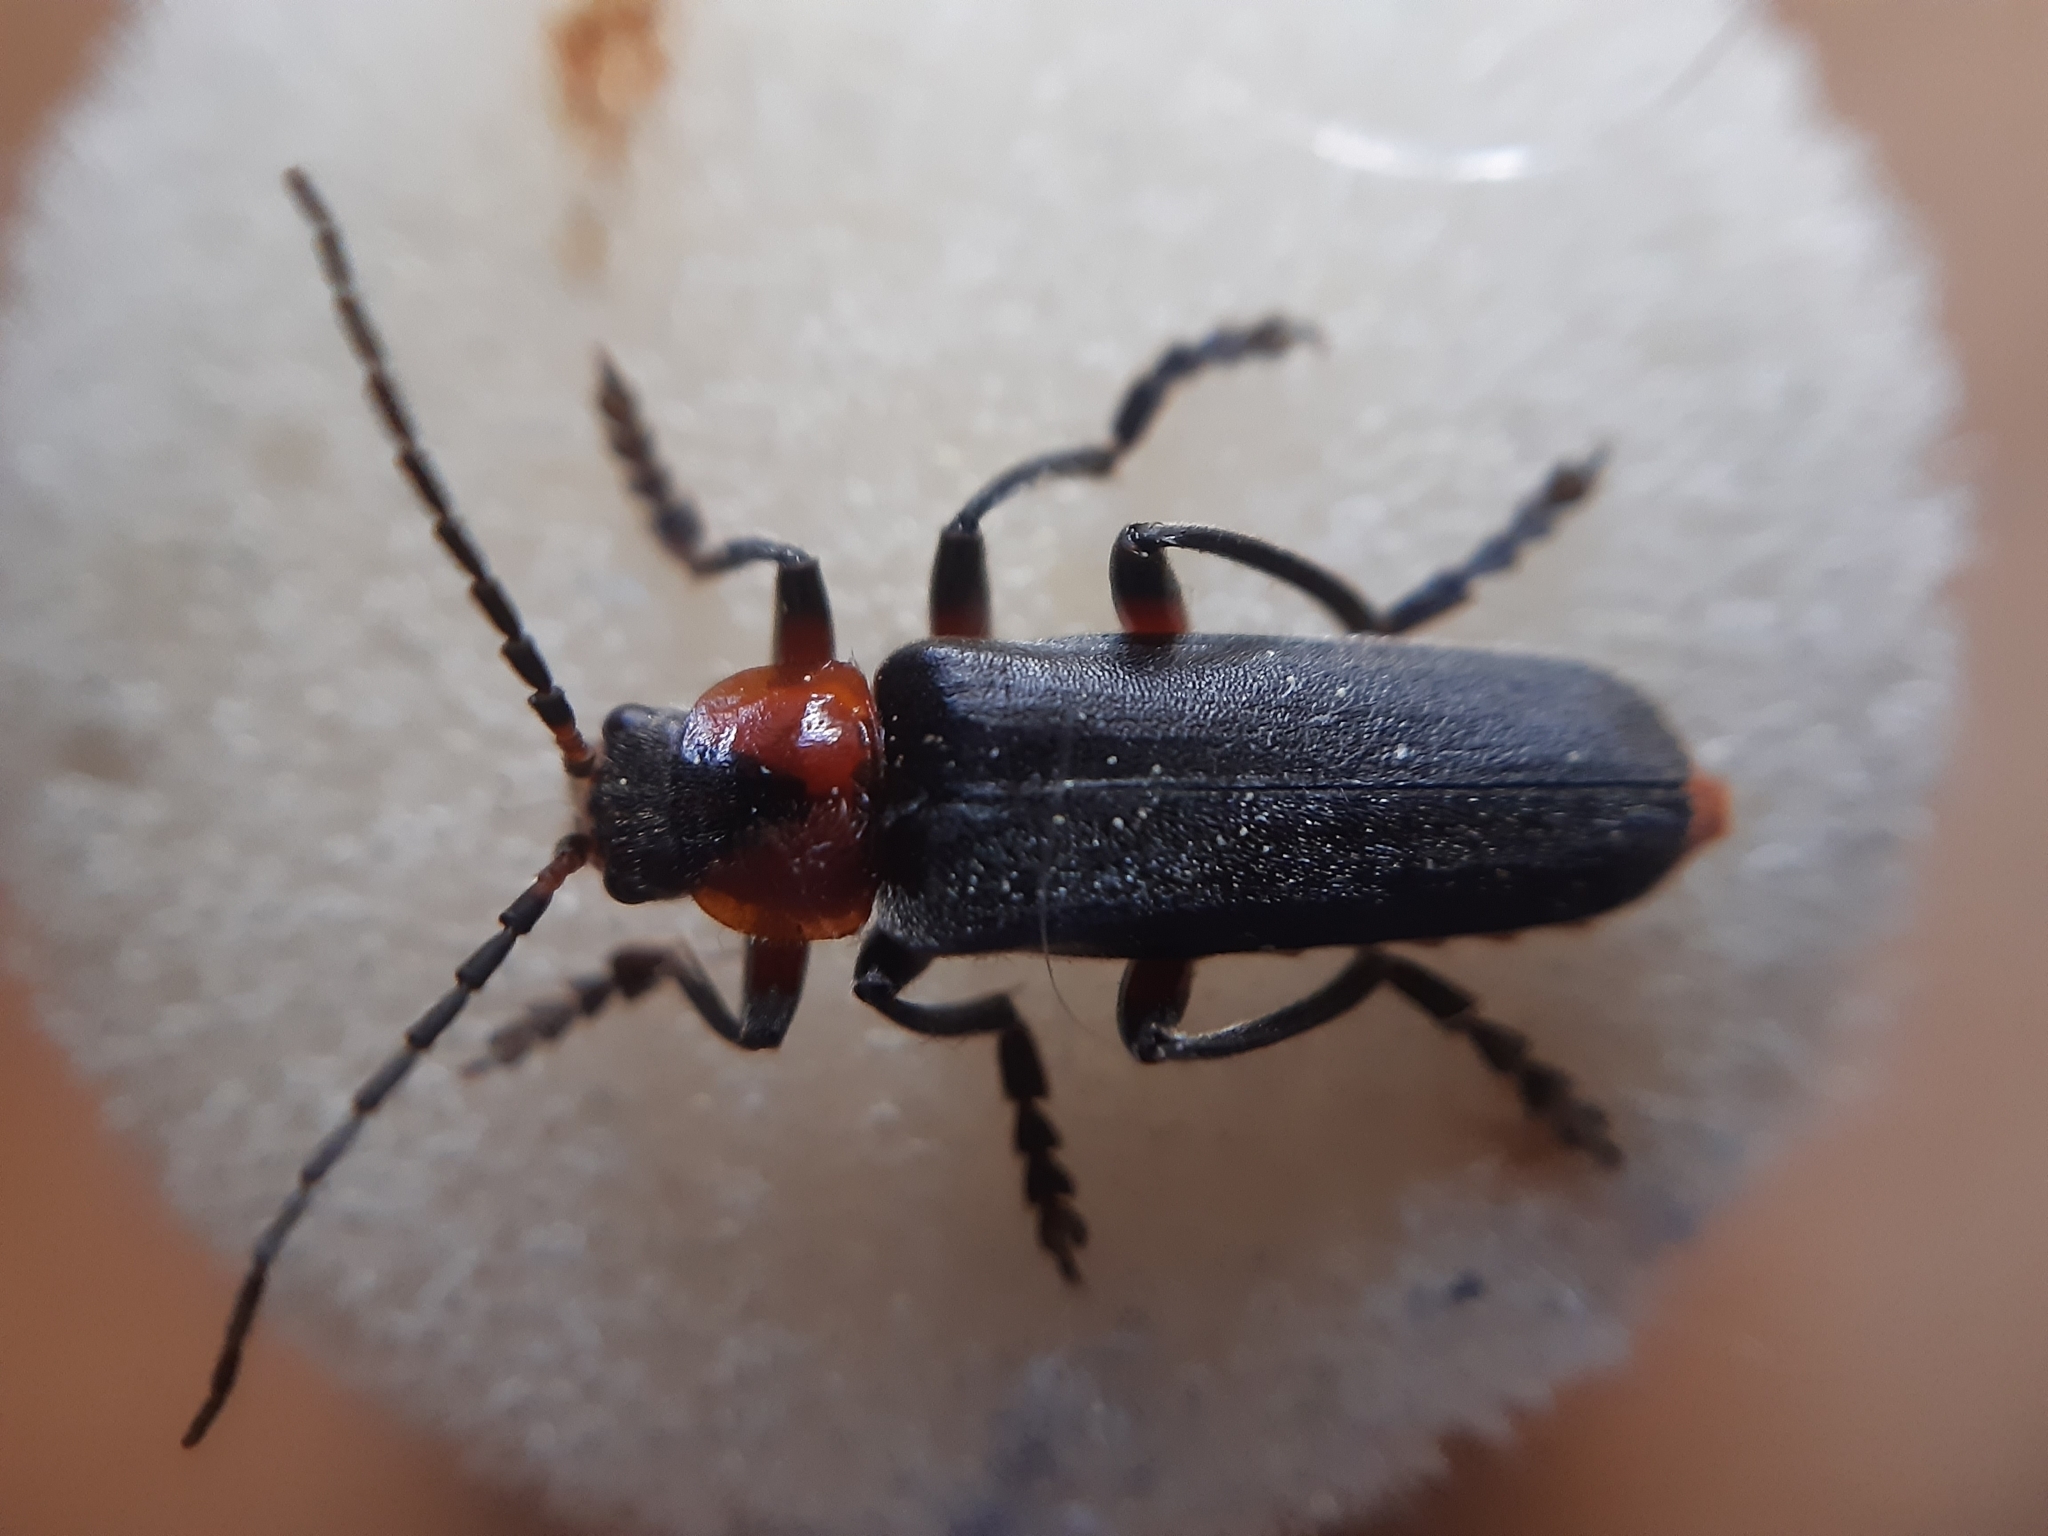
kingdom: Animalia
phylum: Arthropoda
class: Insecta
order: Coleoptera
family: Cantharidae
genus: Cantharis
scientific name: Cantharis rustica
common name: Soldier beetle
